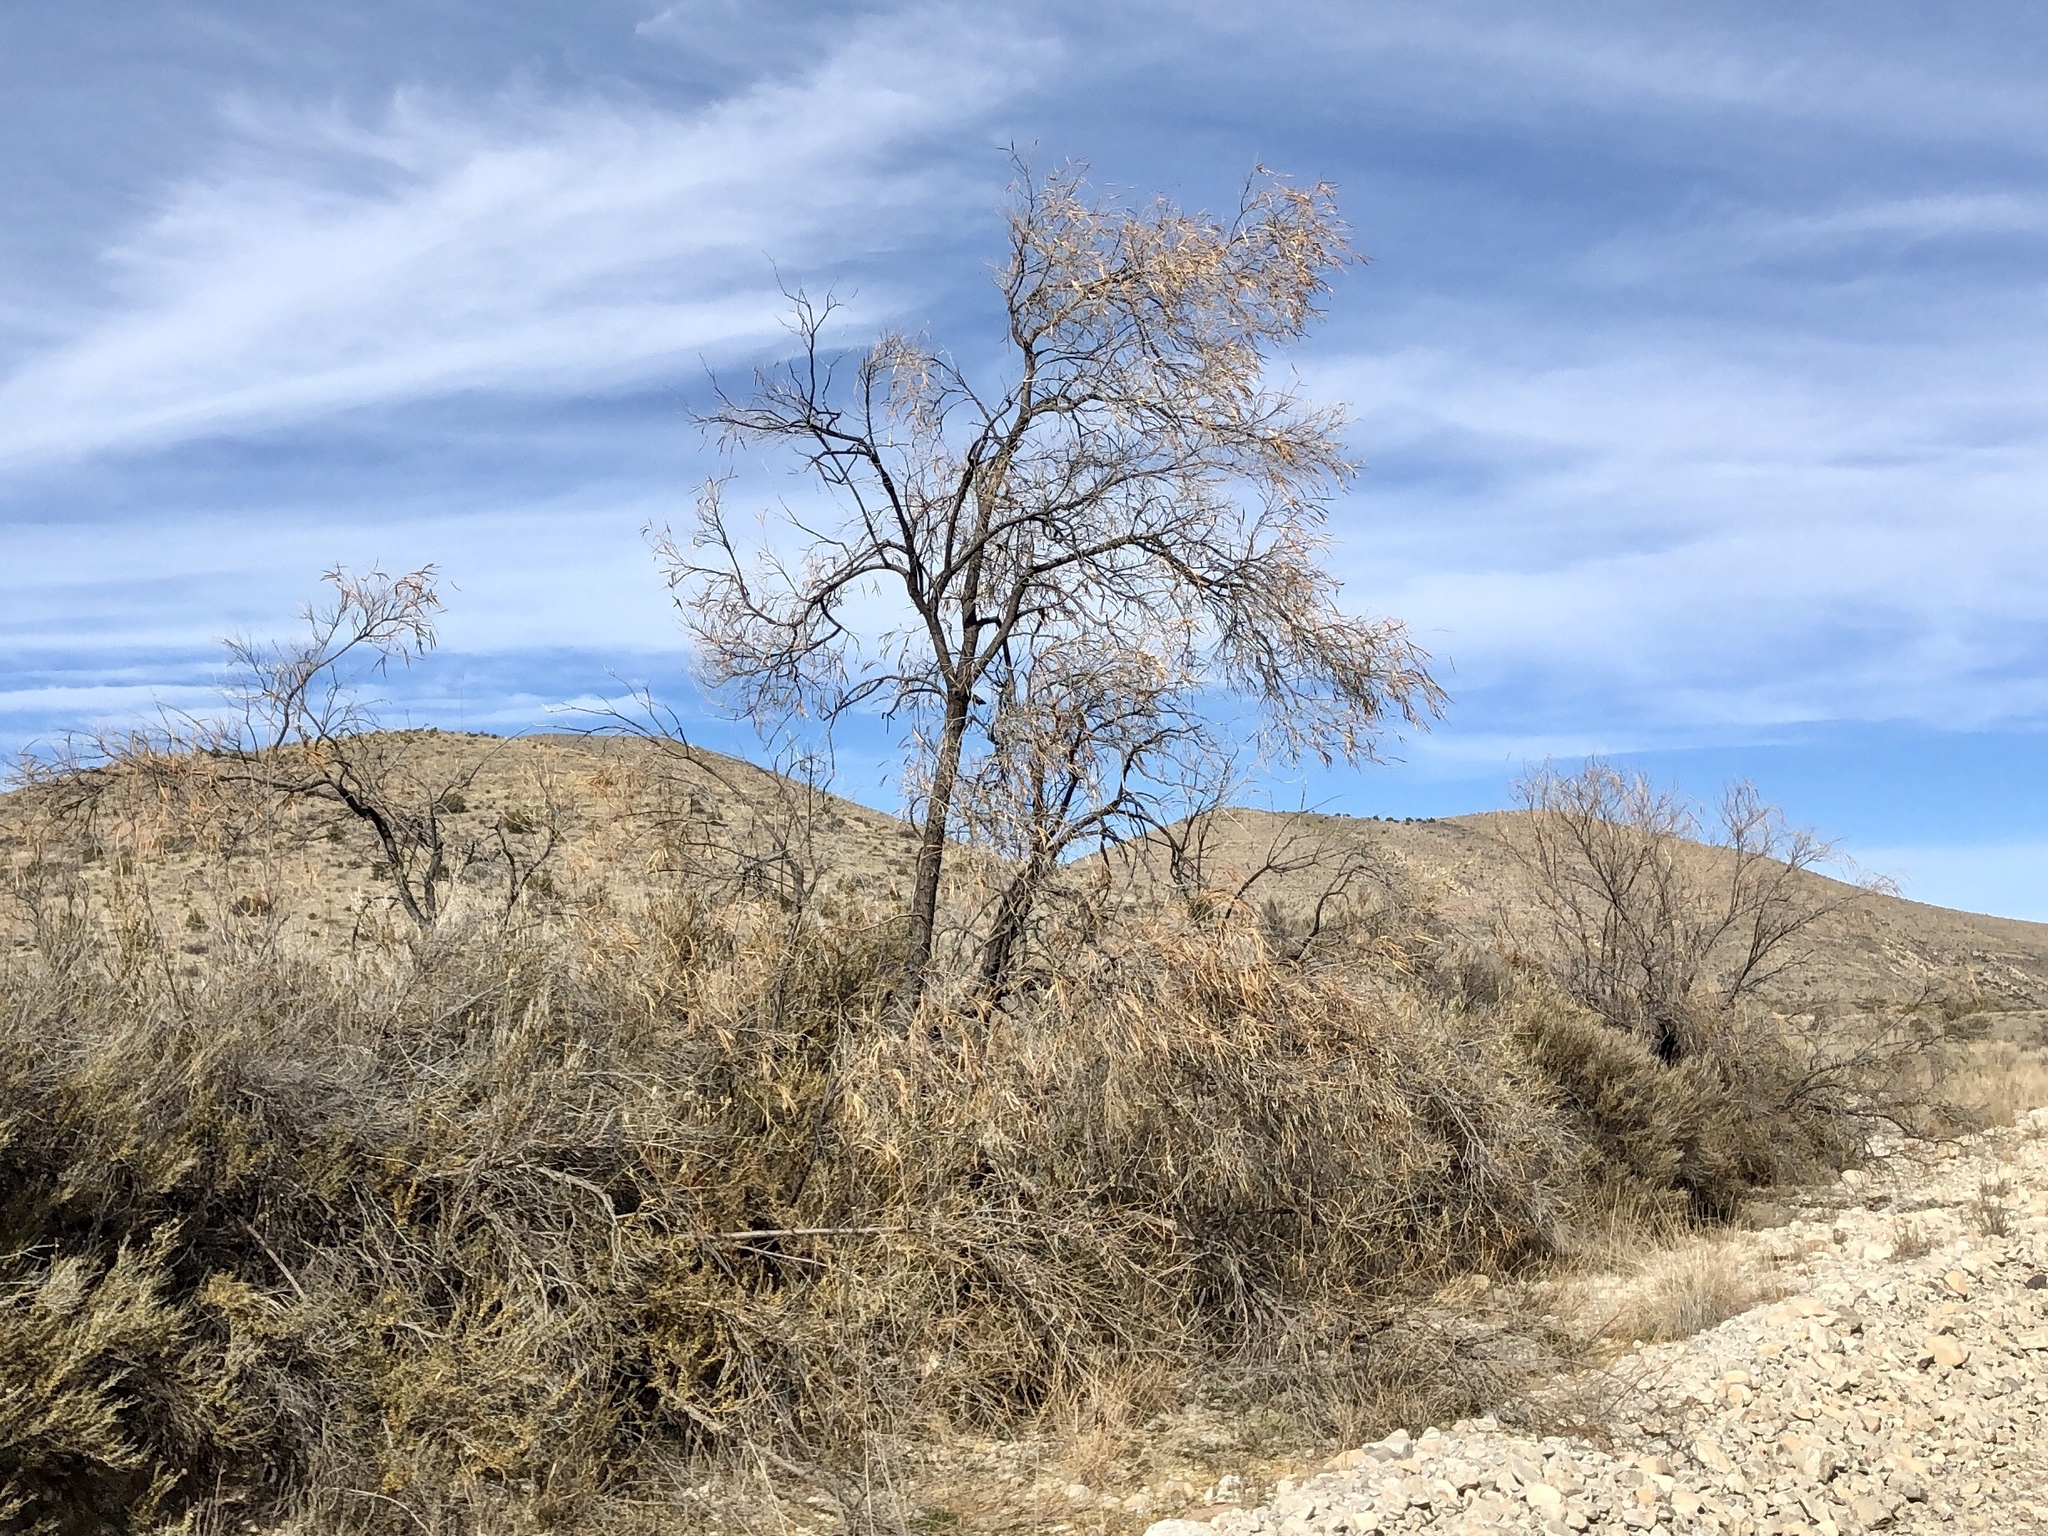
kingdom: Plantae
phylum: Tracheophyta
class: Magnoliopsida
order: Lamiales
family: Bignoniaceae
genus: Chilopsis
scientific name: Chilopsis linearis
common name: Desert-willow
